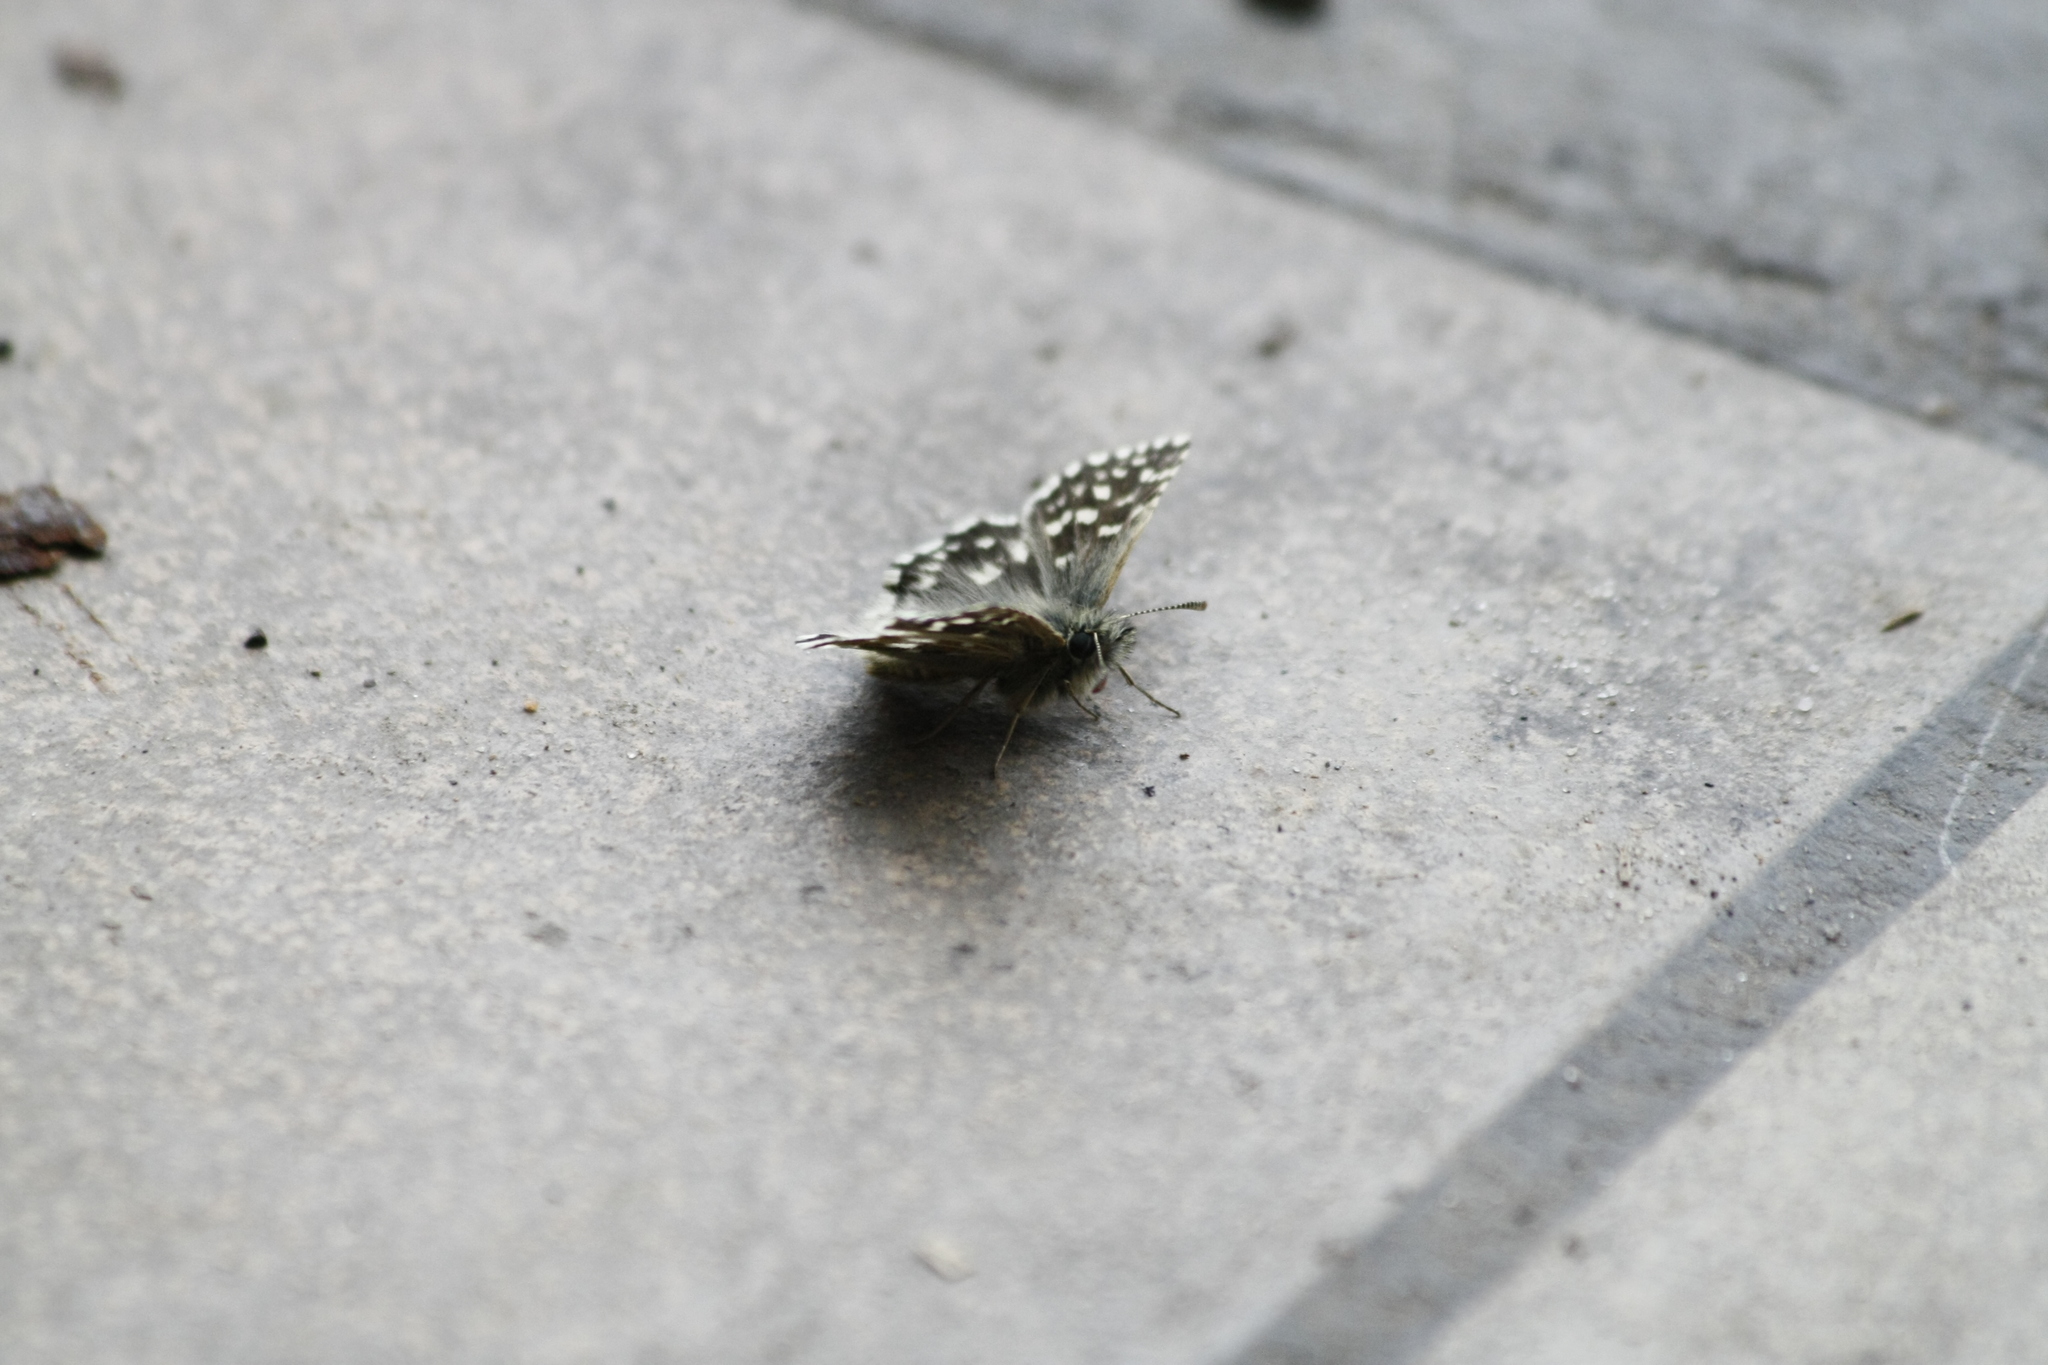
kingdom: Animalia
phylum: Arthropoda
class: Insecta
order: Lepidoptera
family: Hesperiidae
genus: Pyrgus
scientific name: Pyrgus malvae
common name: Grizzled skipper
